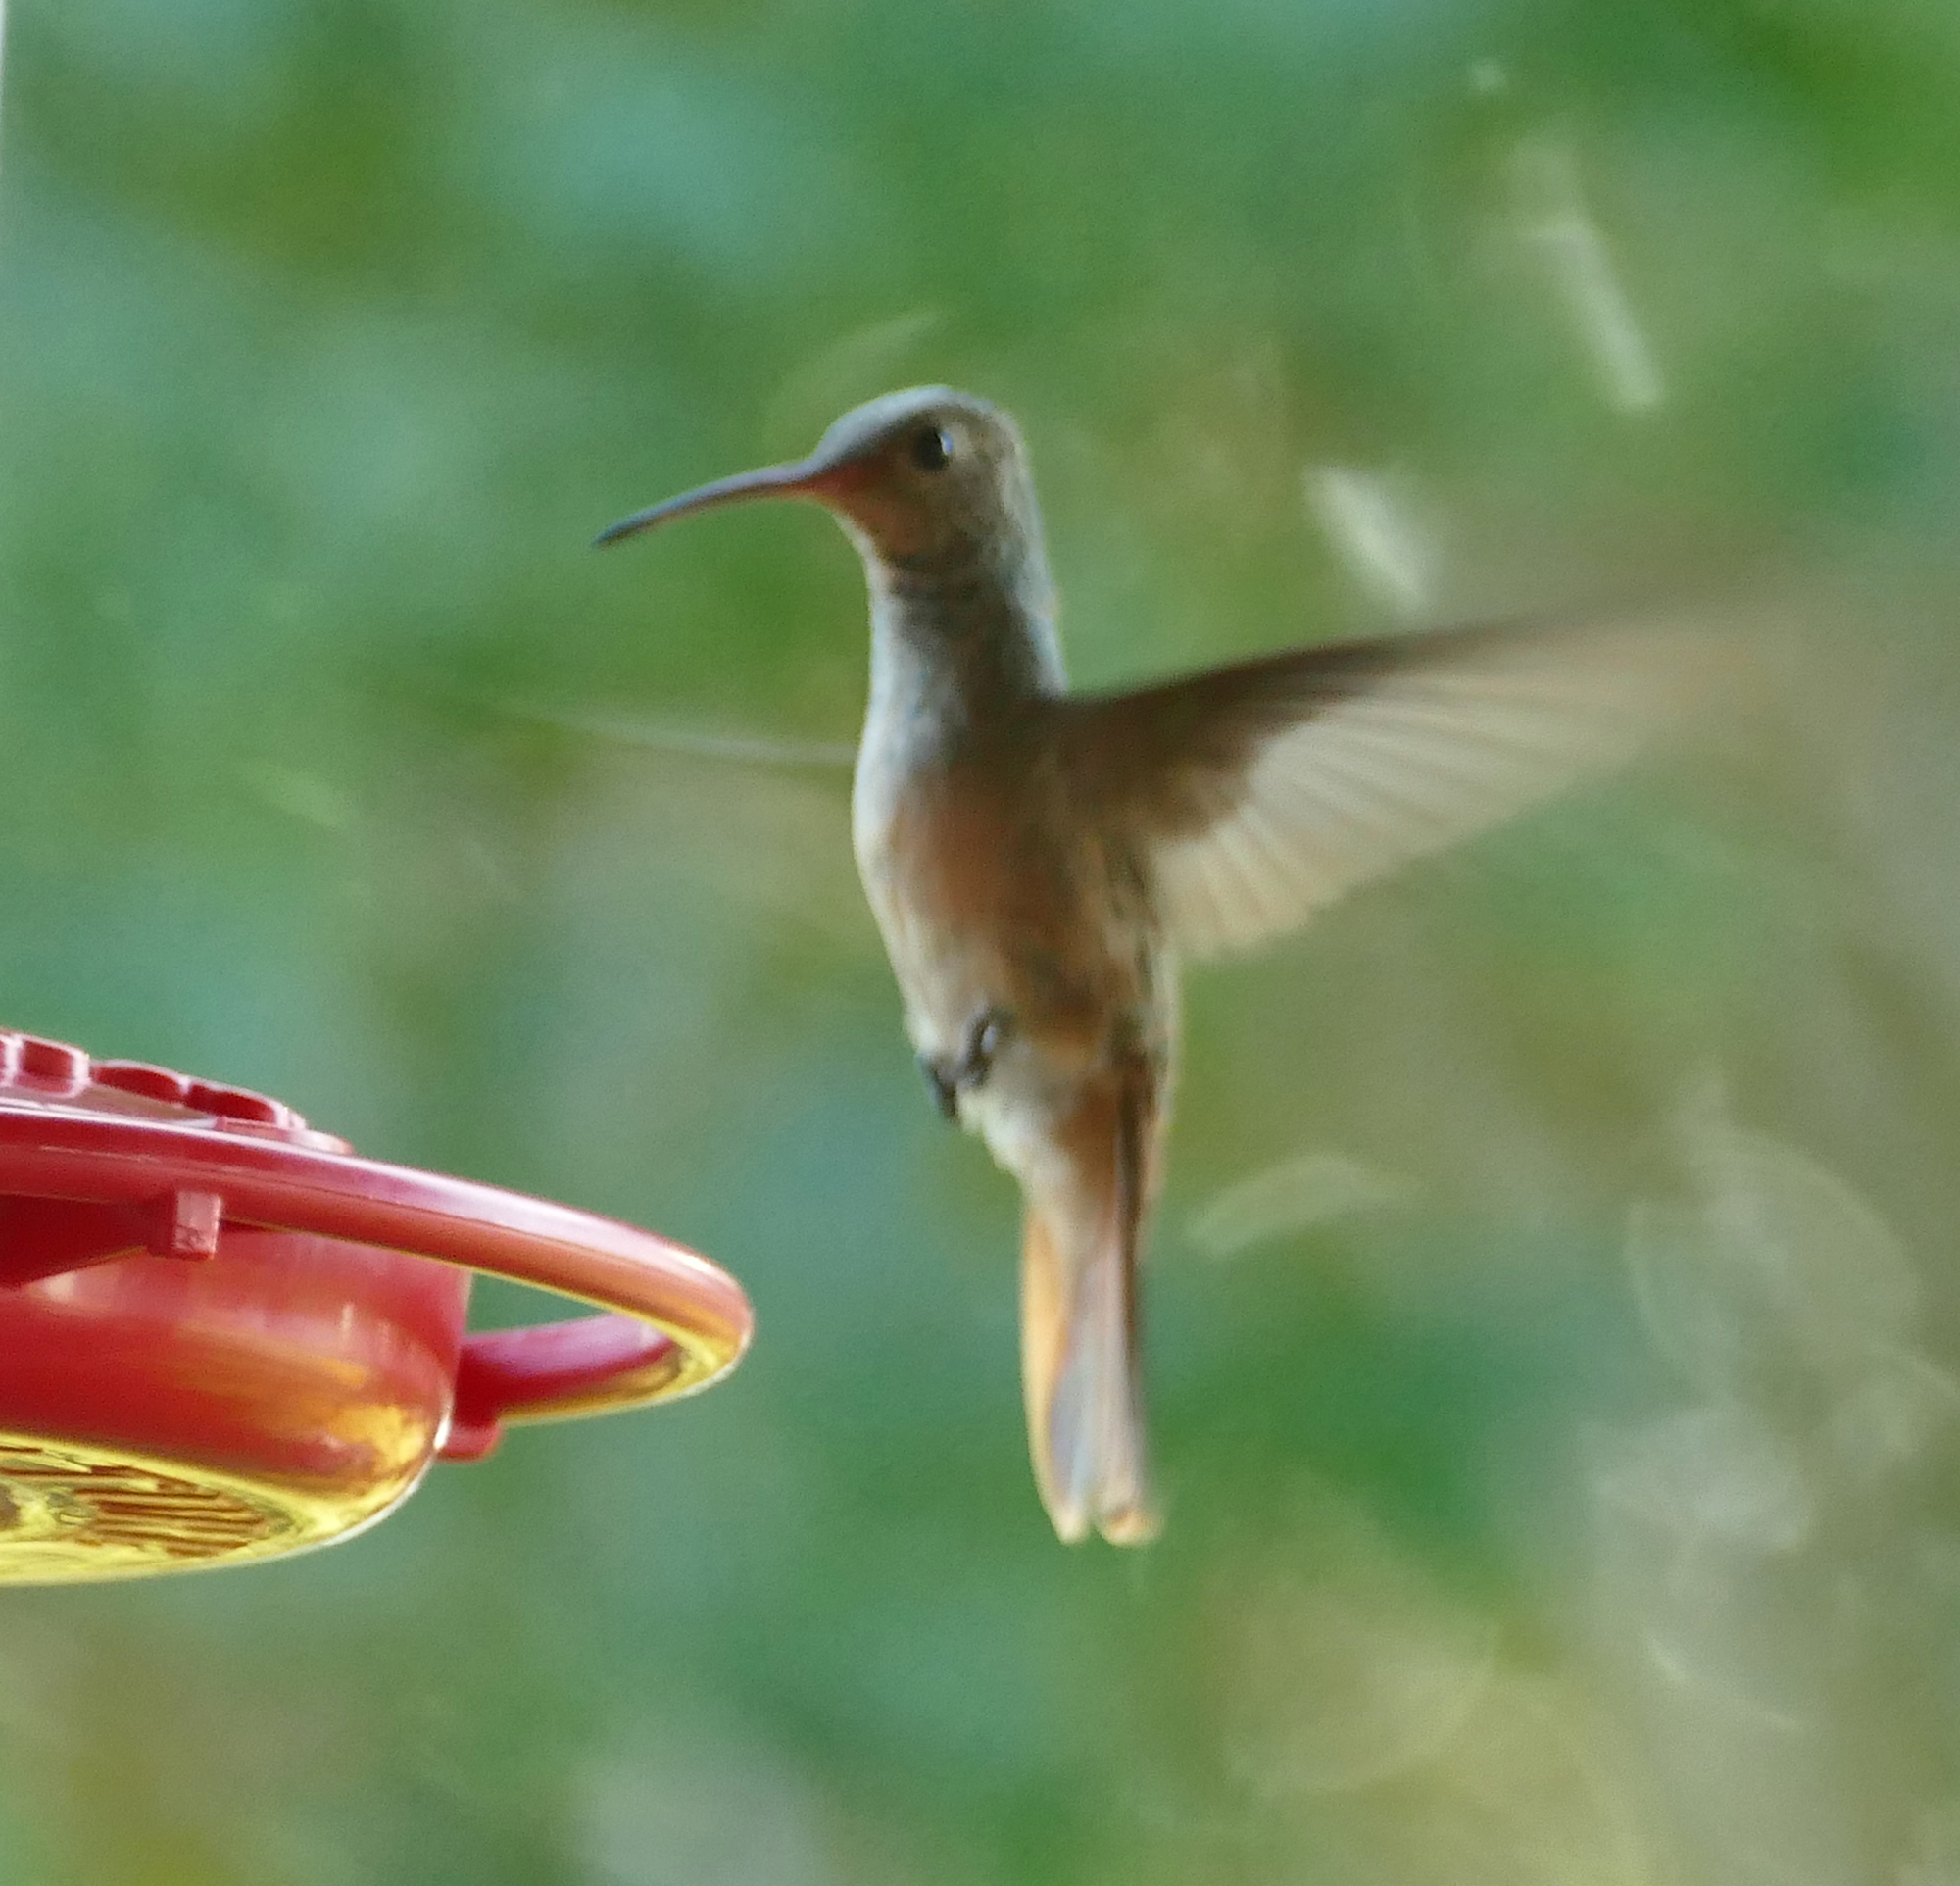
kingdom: Animalia
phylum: Chordata
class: Aves
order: Apodiformes
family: Trochilidae
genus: Amazilia
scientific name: Amazilia yucatanensis
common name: Buff-bellied hummingbird
